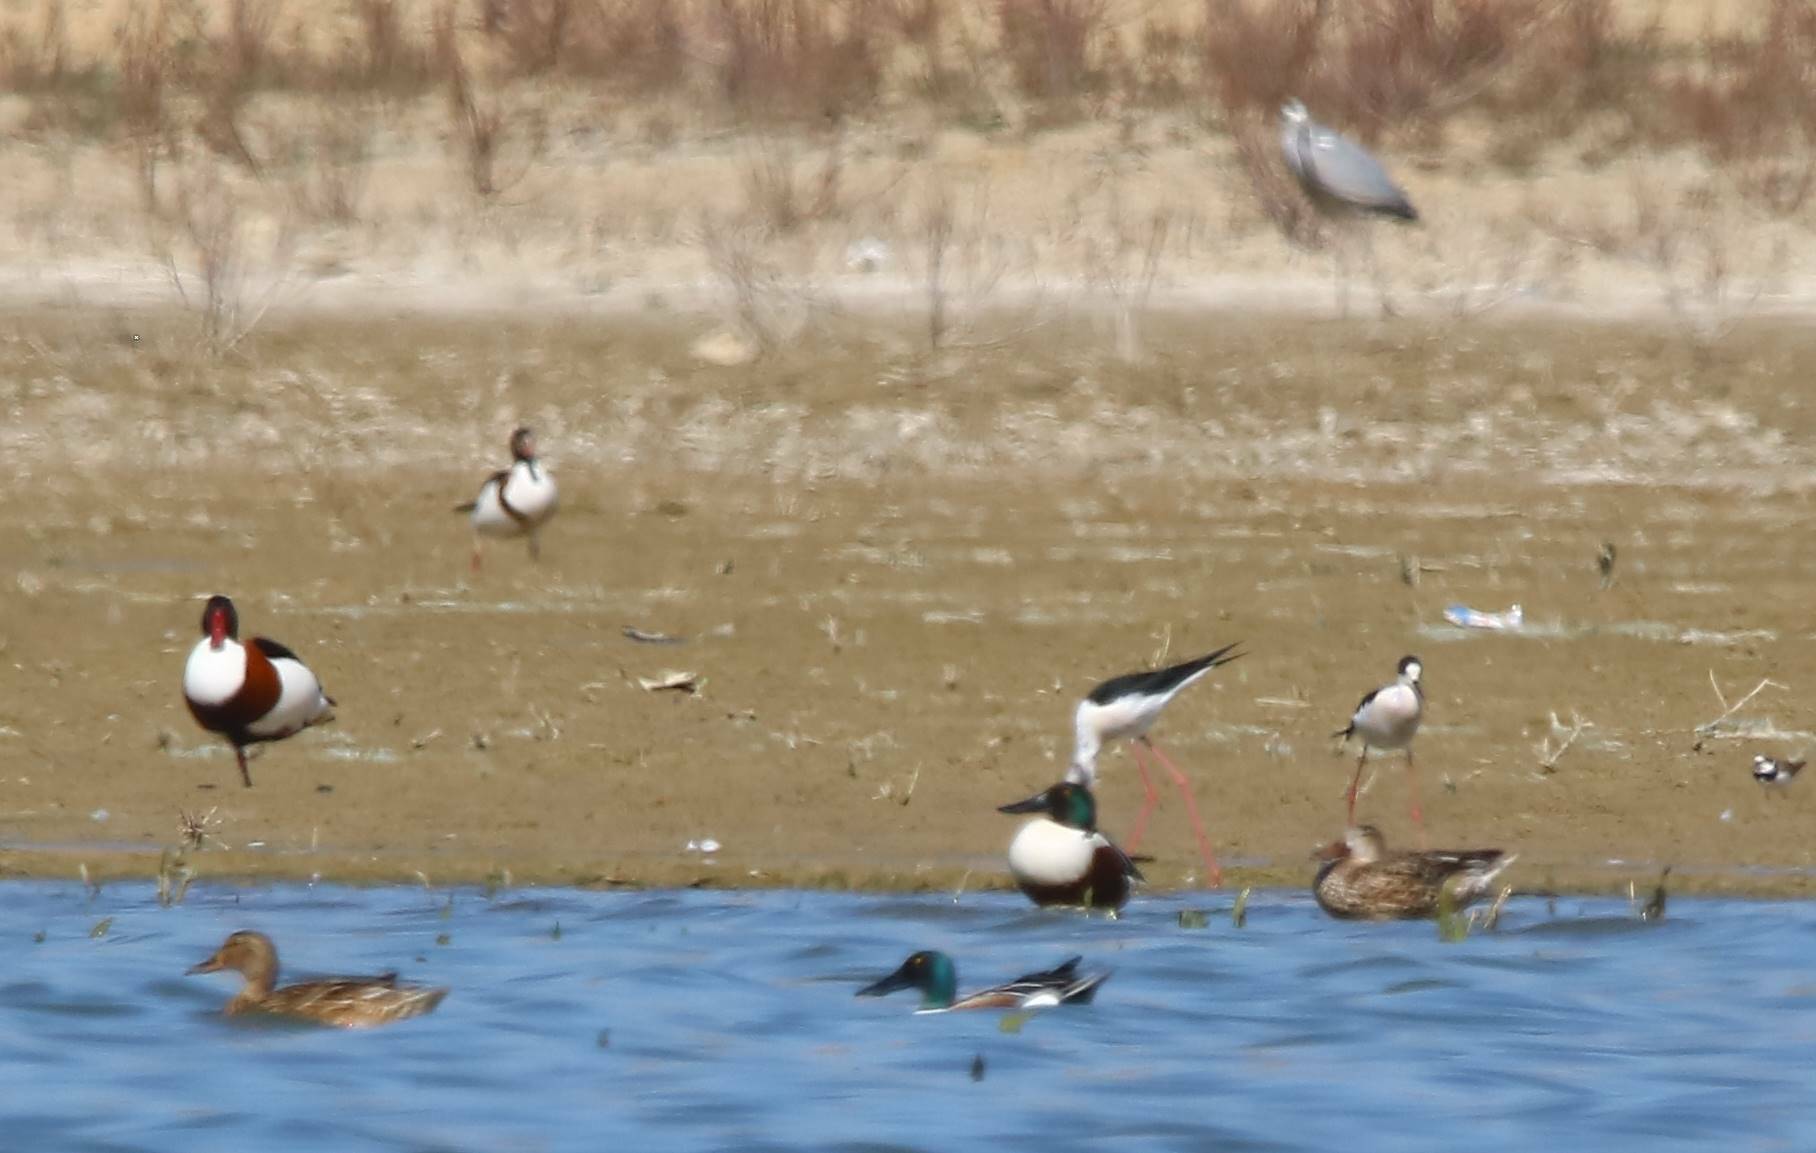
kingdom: Animalia
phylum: Chordata
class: Aves
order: Anseriformes
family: Anatidae
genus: Spatula
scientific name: Spatula clypeata
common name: Northern shoveler
